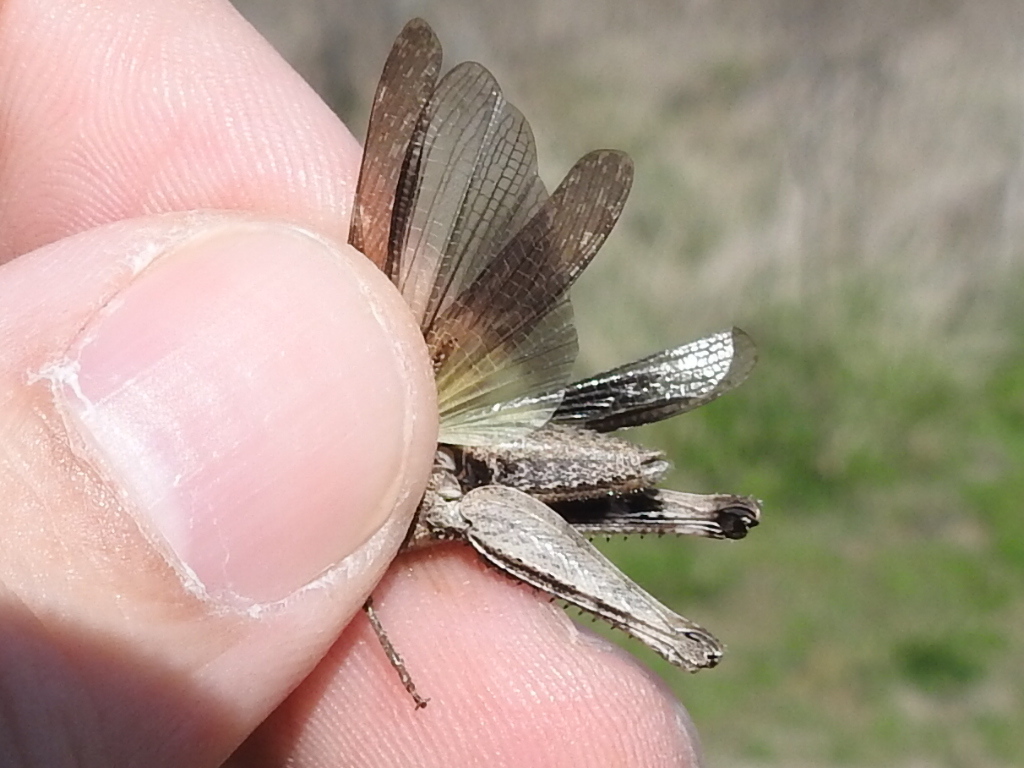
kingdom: Animalia
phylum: Arthropoda
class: Insecta
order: Orthoptera
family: Acrididae
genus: Chortophaga
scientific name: Chortophaga viridifasciata
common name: Green-striped grasshopper
